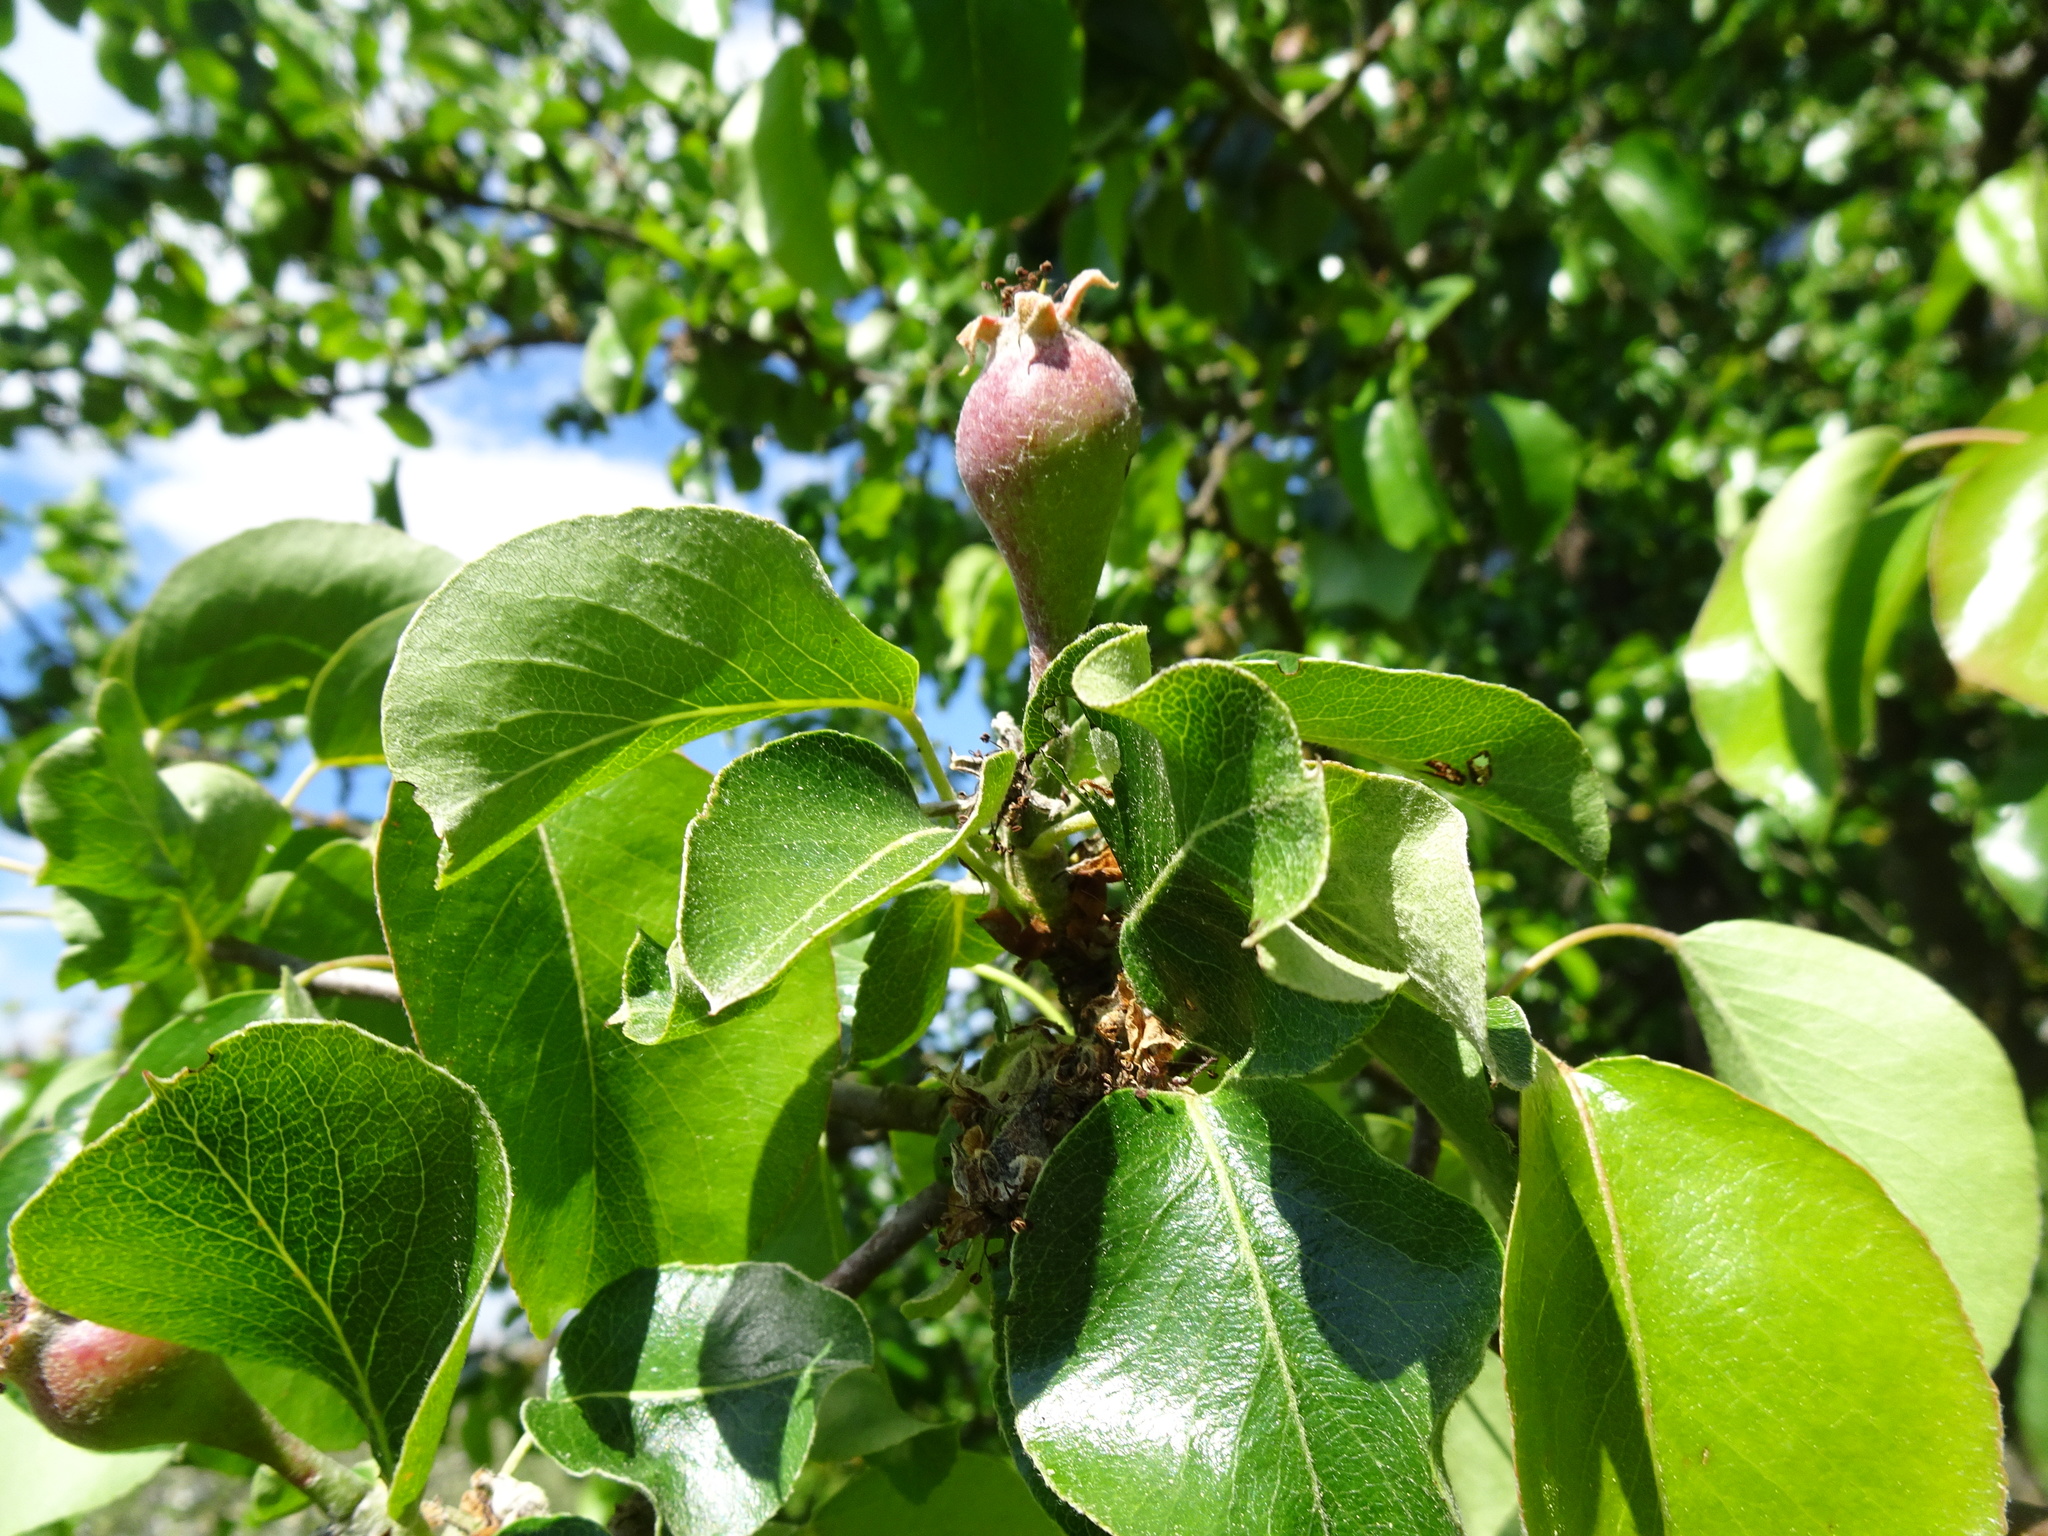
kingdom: Plantae
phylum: Tracheophyta
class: Magnoliopsida
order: Rosales
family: Rosaceae
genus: Malus
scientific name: Malus domestica
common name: Apple
